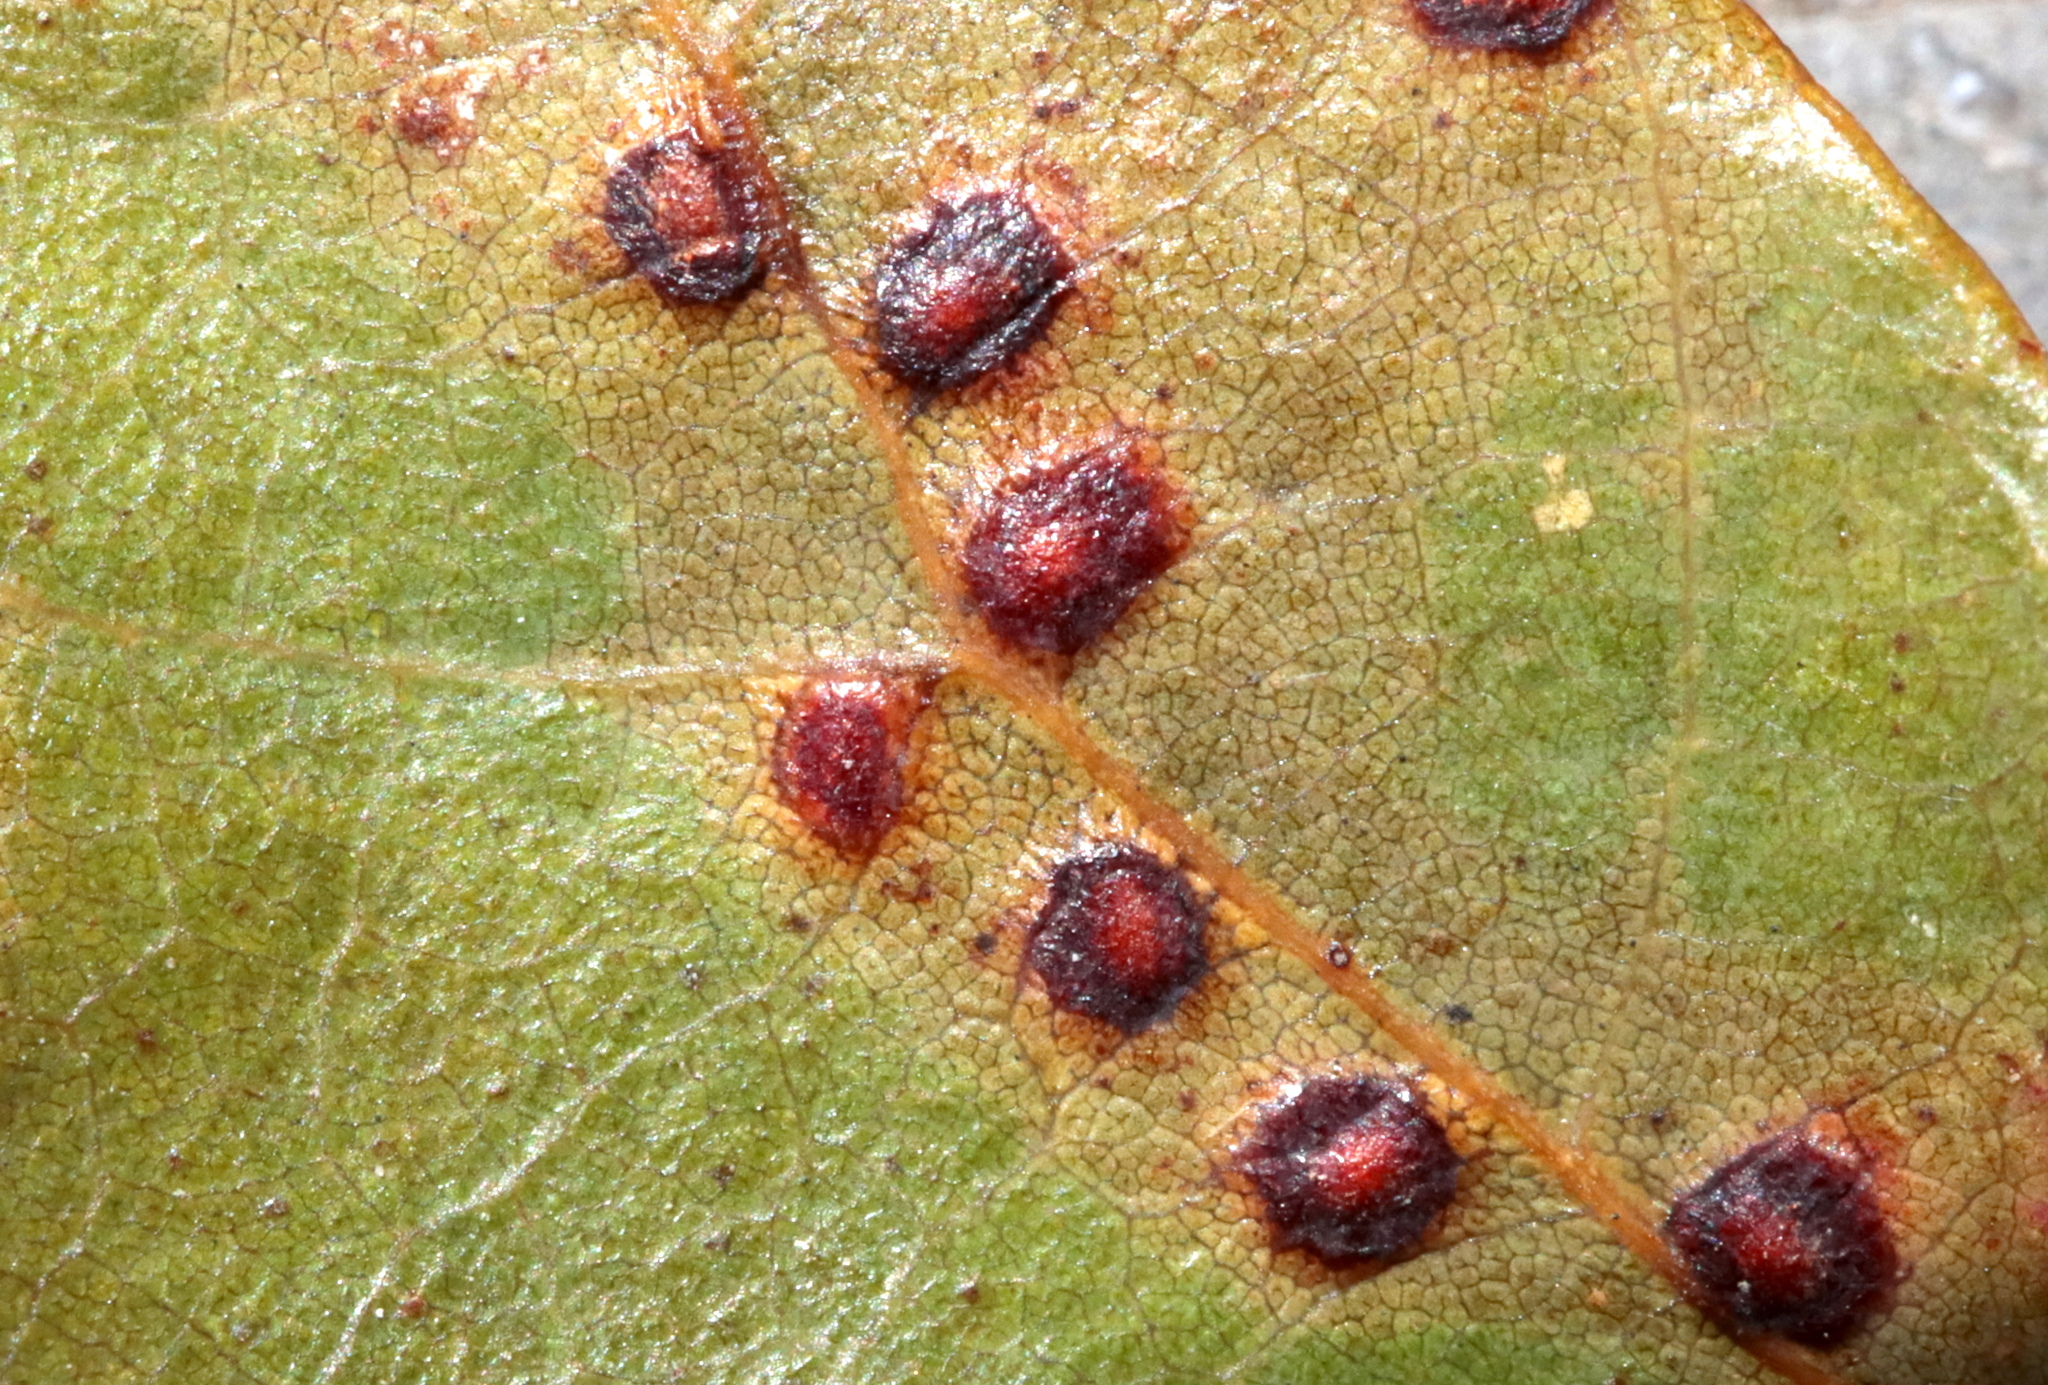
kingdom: Animalia
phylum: Arthropoda
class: Insecta
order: Hymenoptera
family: Cynipidae
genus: Neuroterus
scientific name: Neuroterus niger
